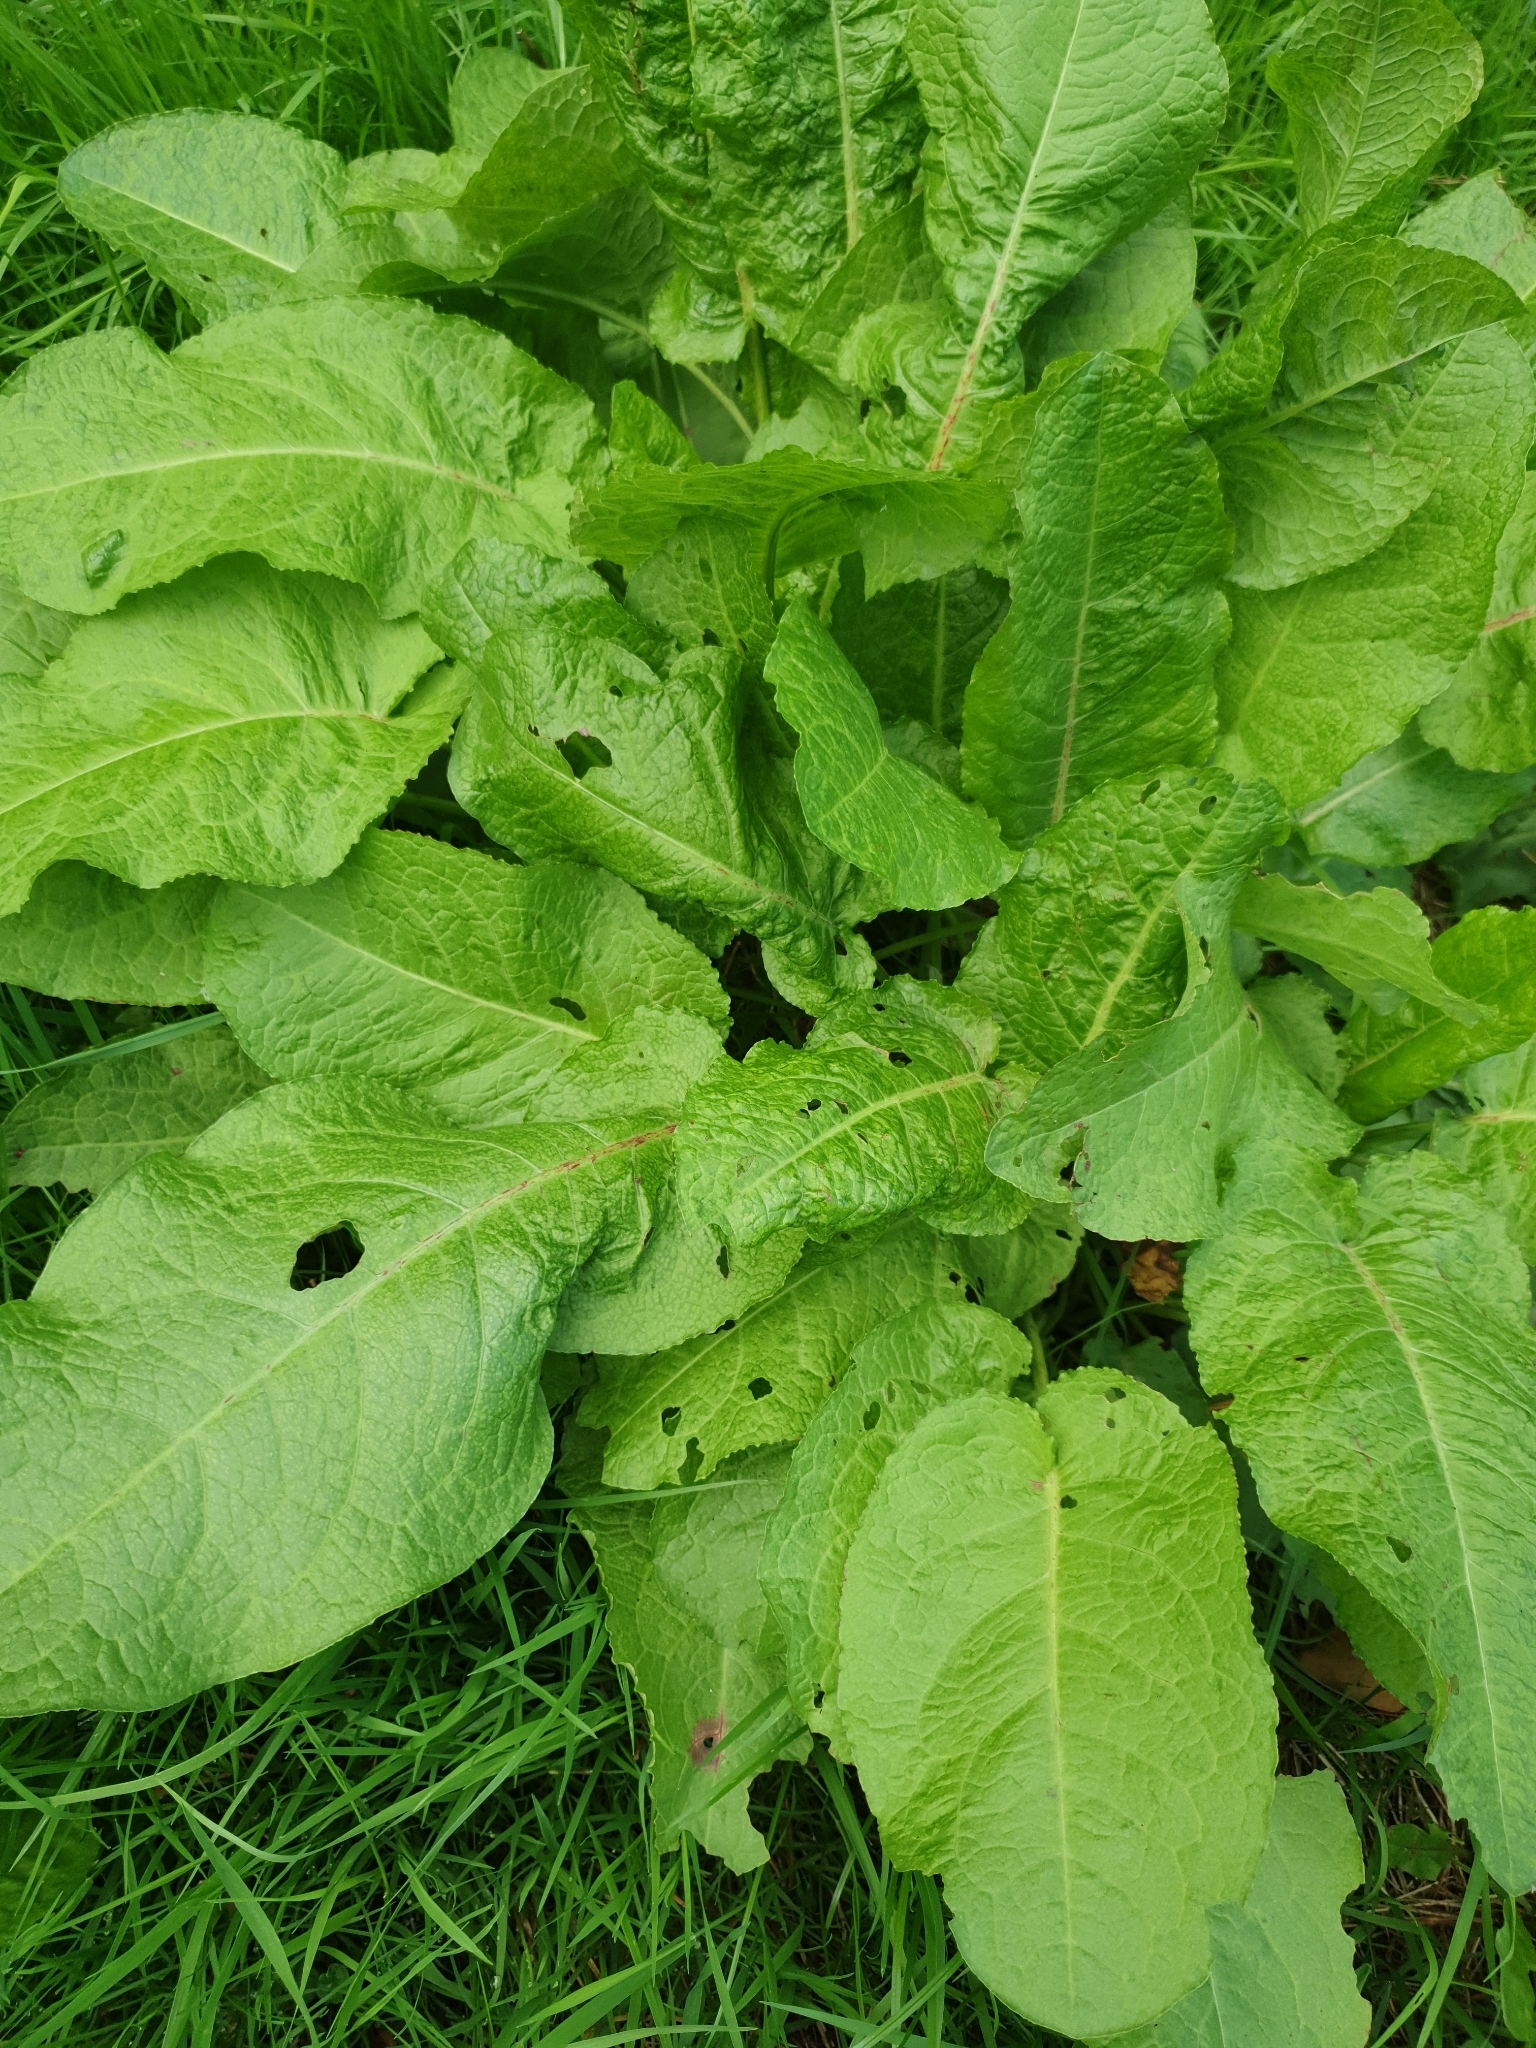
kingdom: Plantae
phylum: Tracheophyta
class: Magnoliopsida
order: Caryophyllales
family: Polygonaceae
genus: Rumex
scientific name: Rumex obtusifolius
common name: Bitter dock
